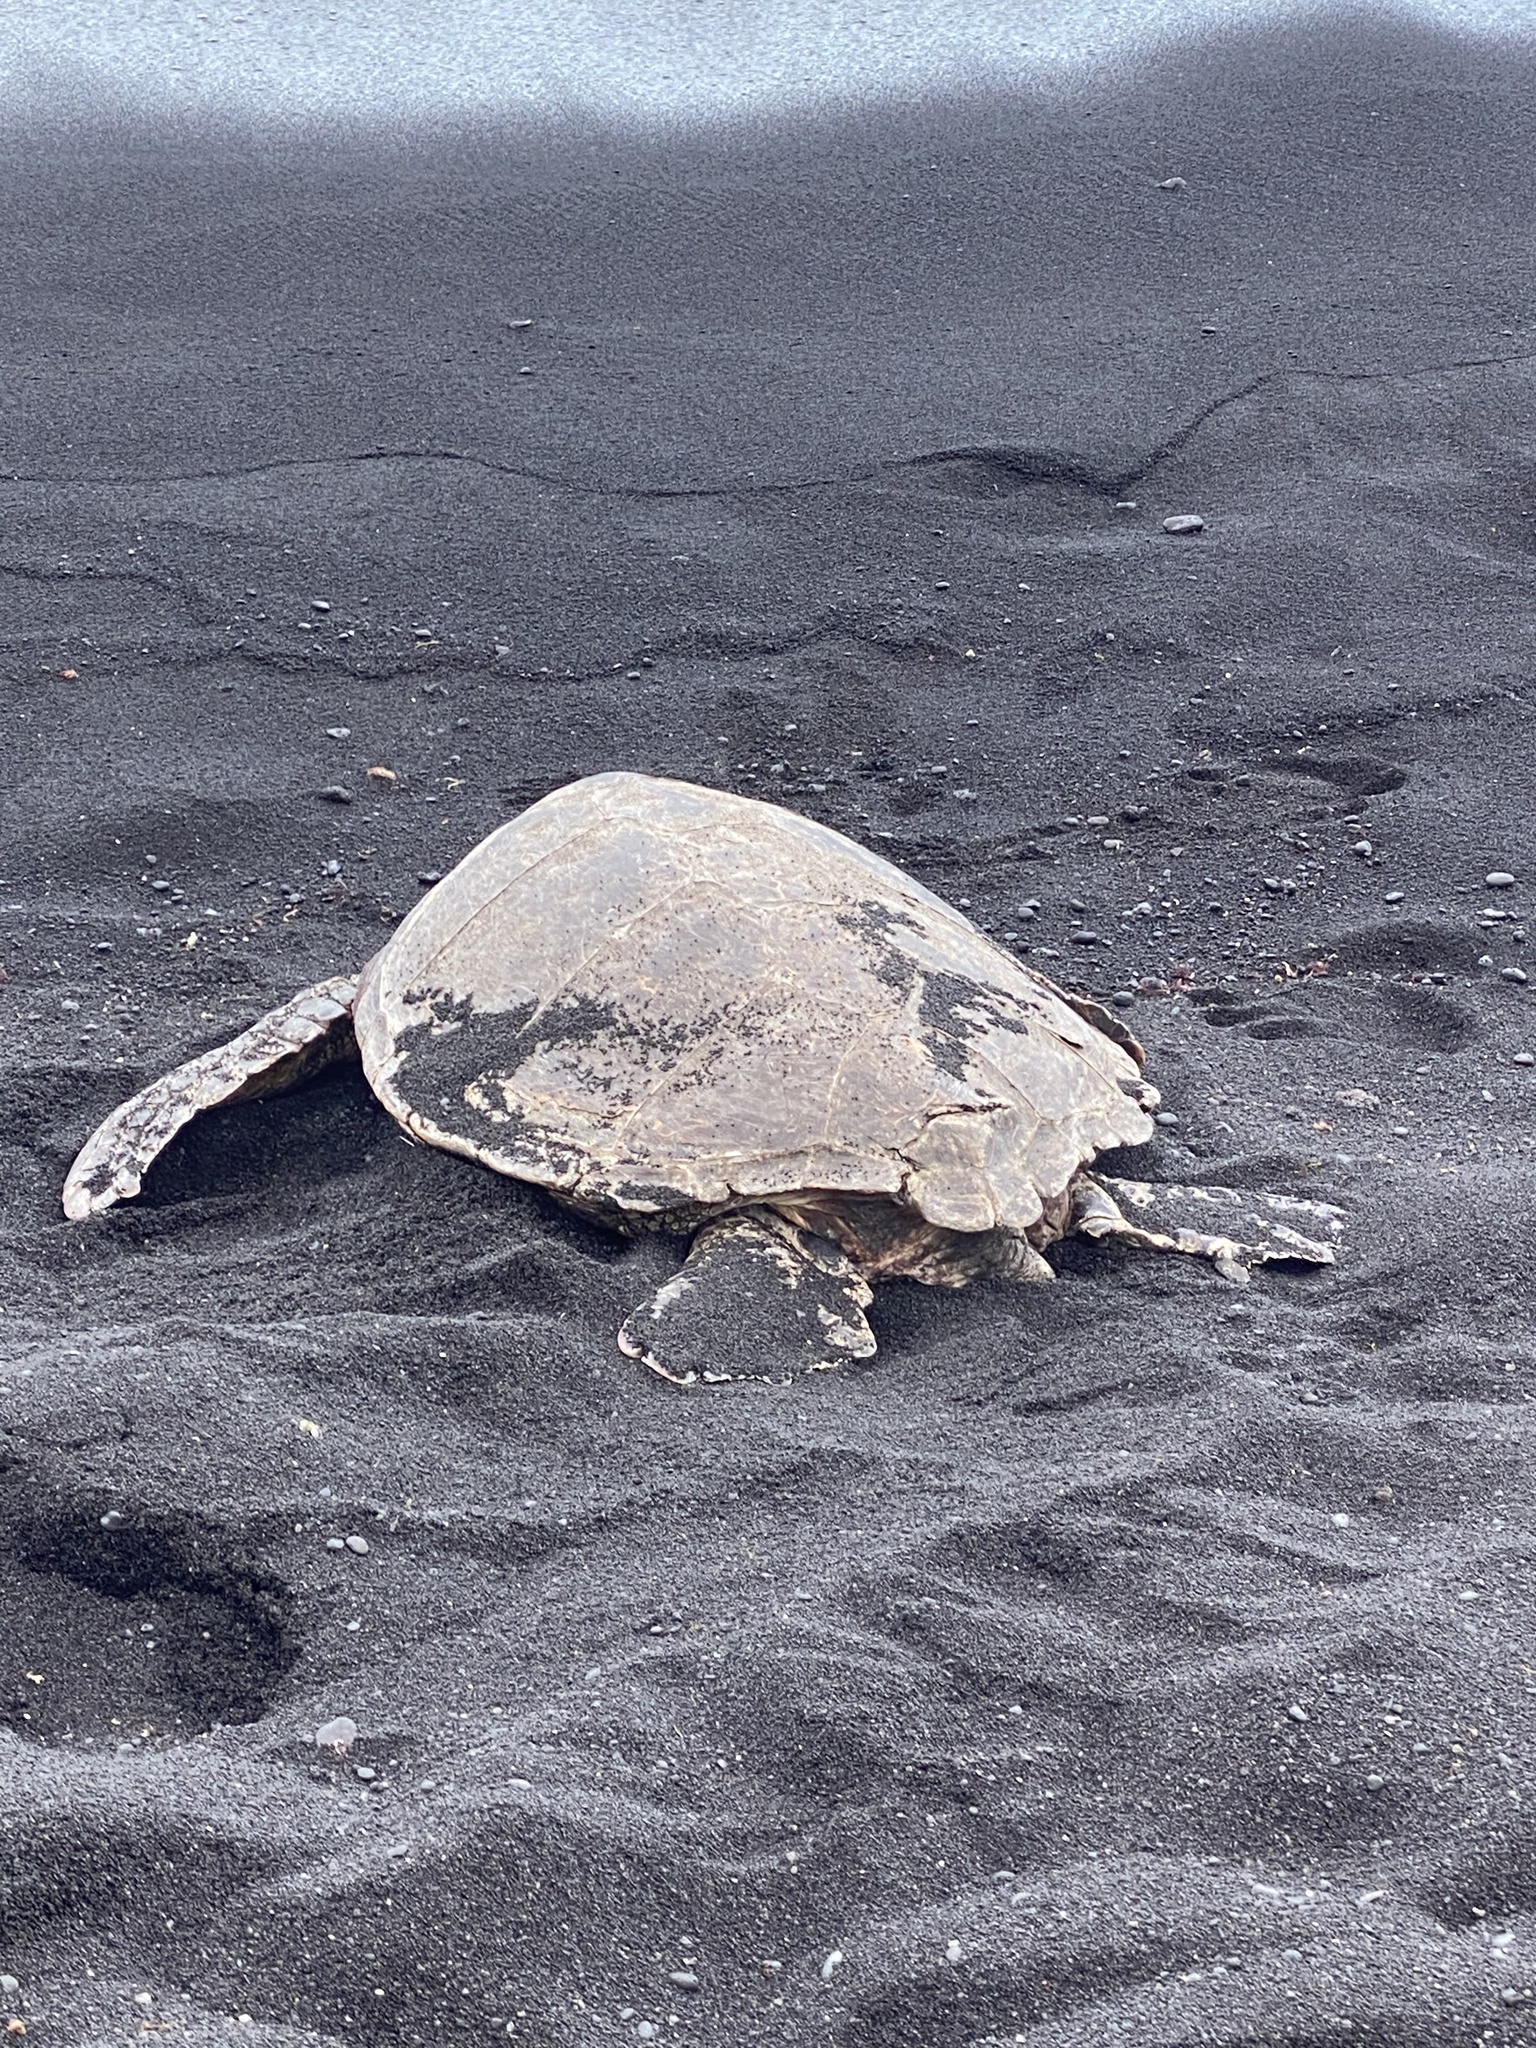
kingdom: Animalia
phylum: Chordata
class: Testudines
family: Cheloniidae
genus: Chelonia
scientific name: Chelonia mydas
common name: Green turtle
